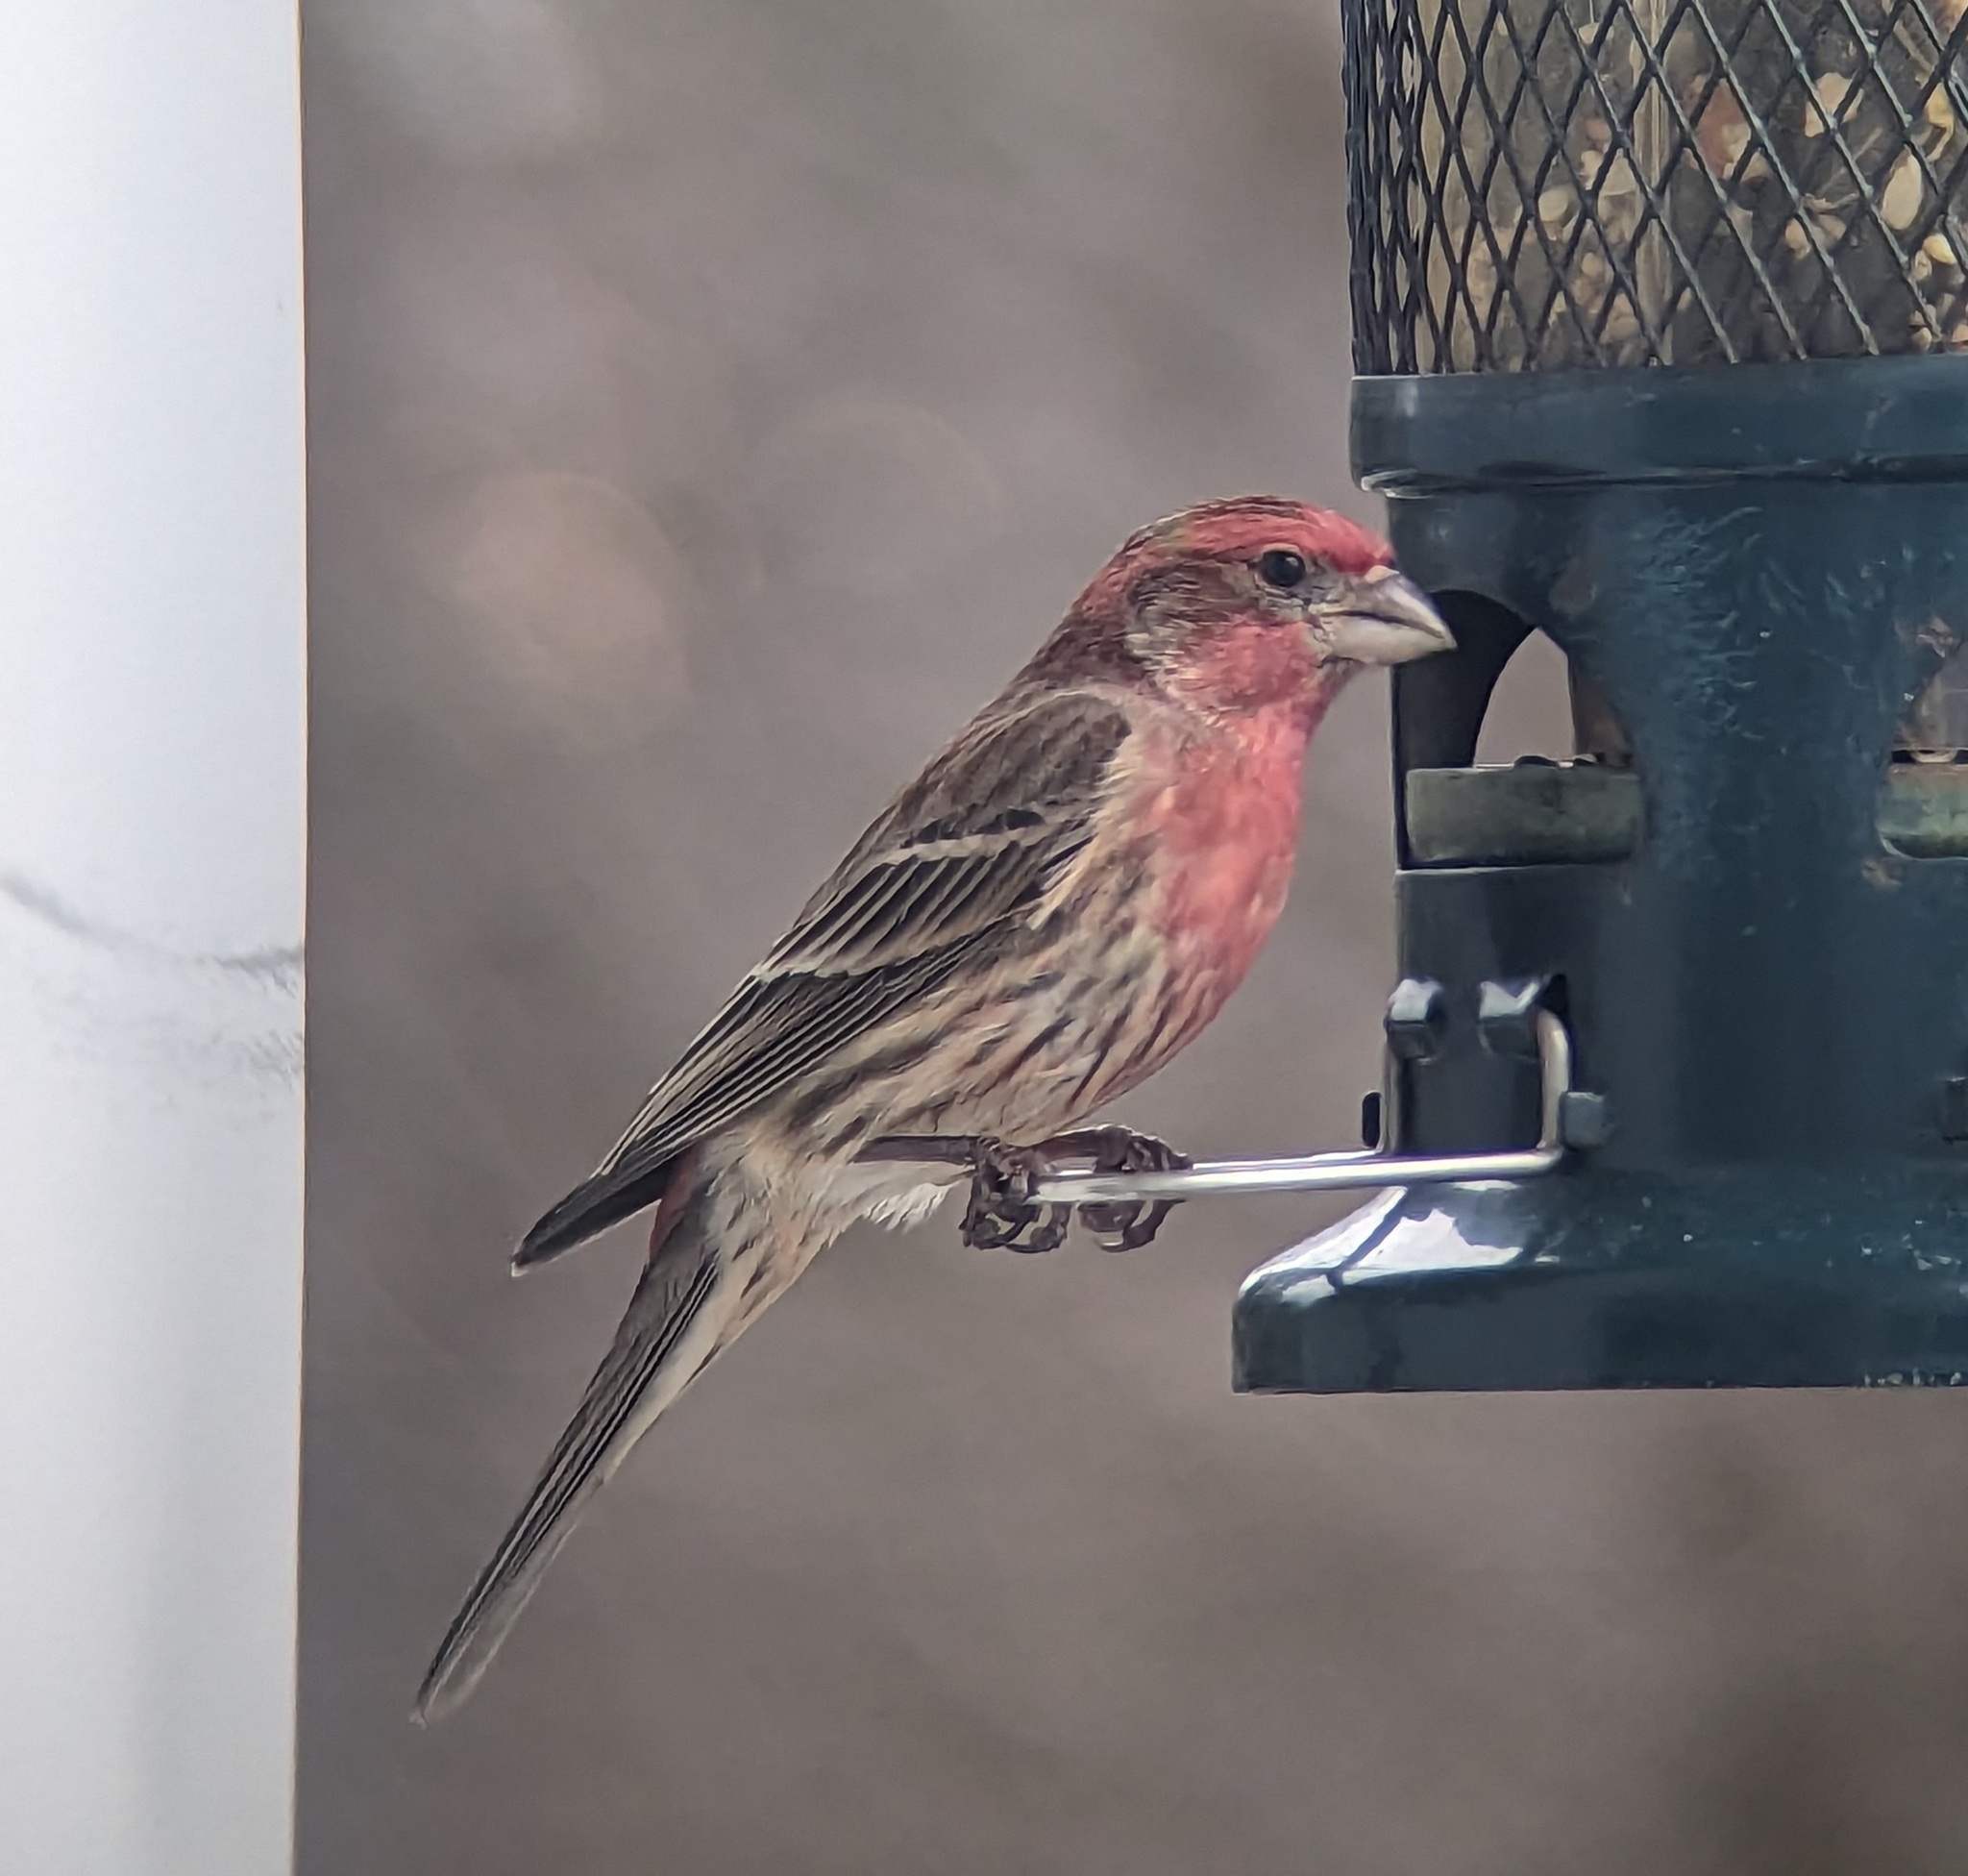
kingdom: Animalia
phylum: Chordata
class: Aves
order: Passeriformes
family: Fringillidae
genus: Haemorhous
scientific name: Haemorhous mexicanus
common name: House finch
